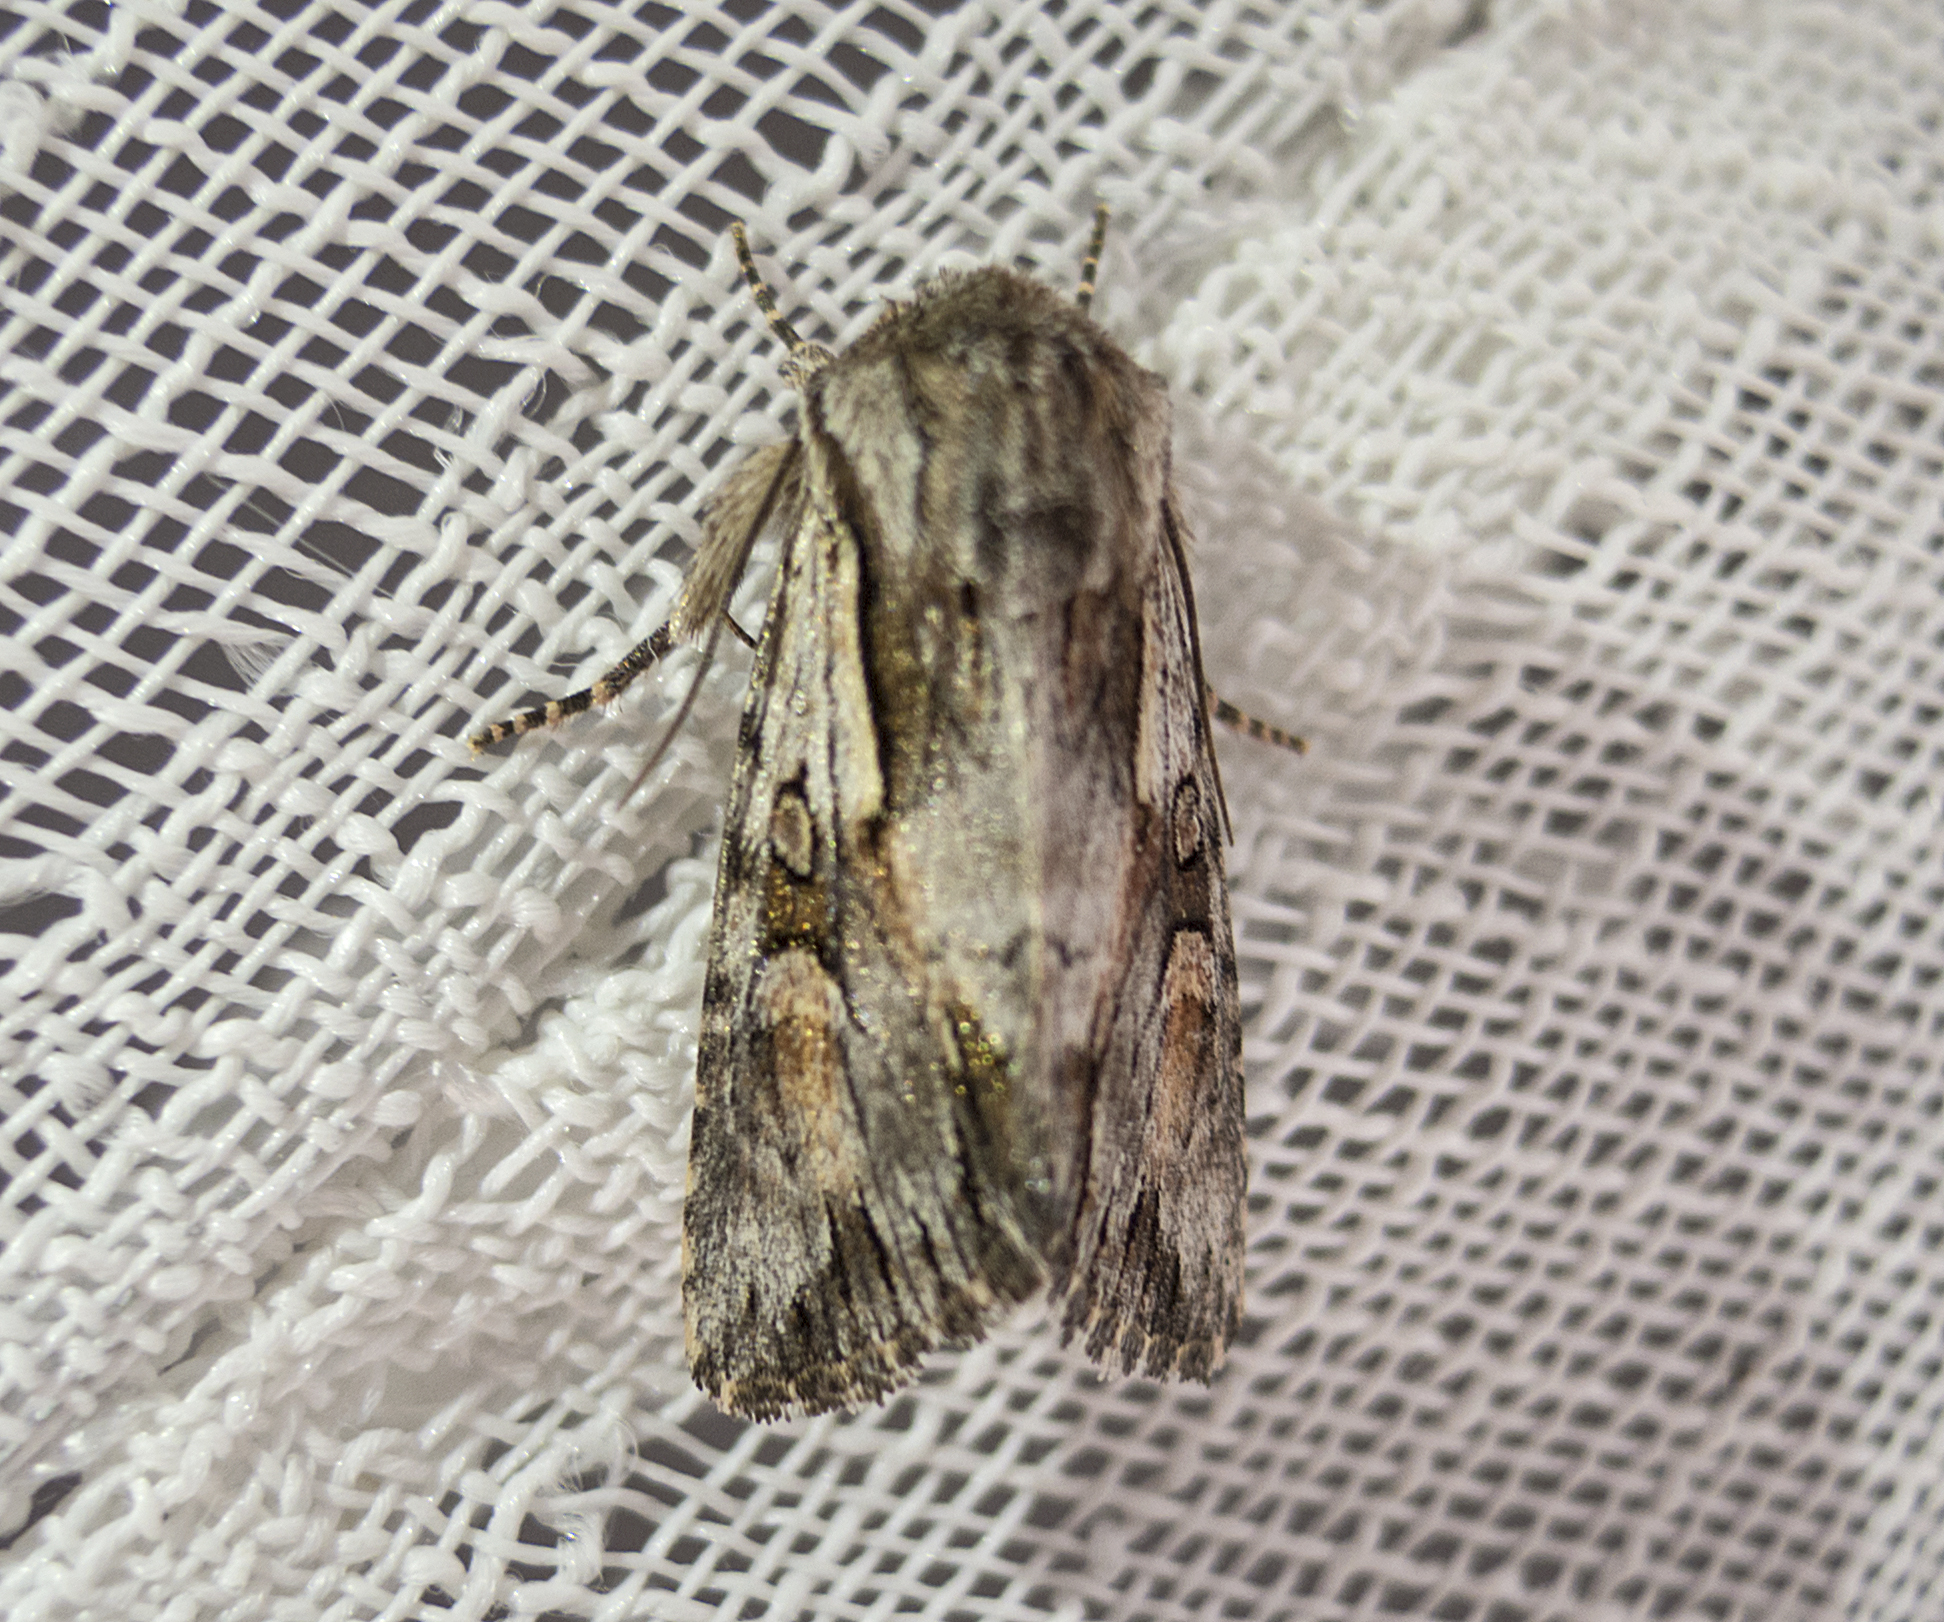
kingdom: Animalia
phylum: Arthropoda
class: Insecta
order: Lepidoptera
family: Noctuidae
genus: Chloantha
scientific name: Chloantha hyperici
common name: Pale-shouldered cloud
